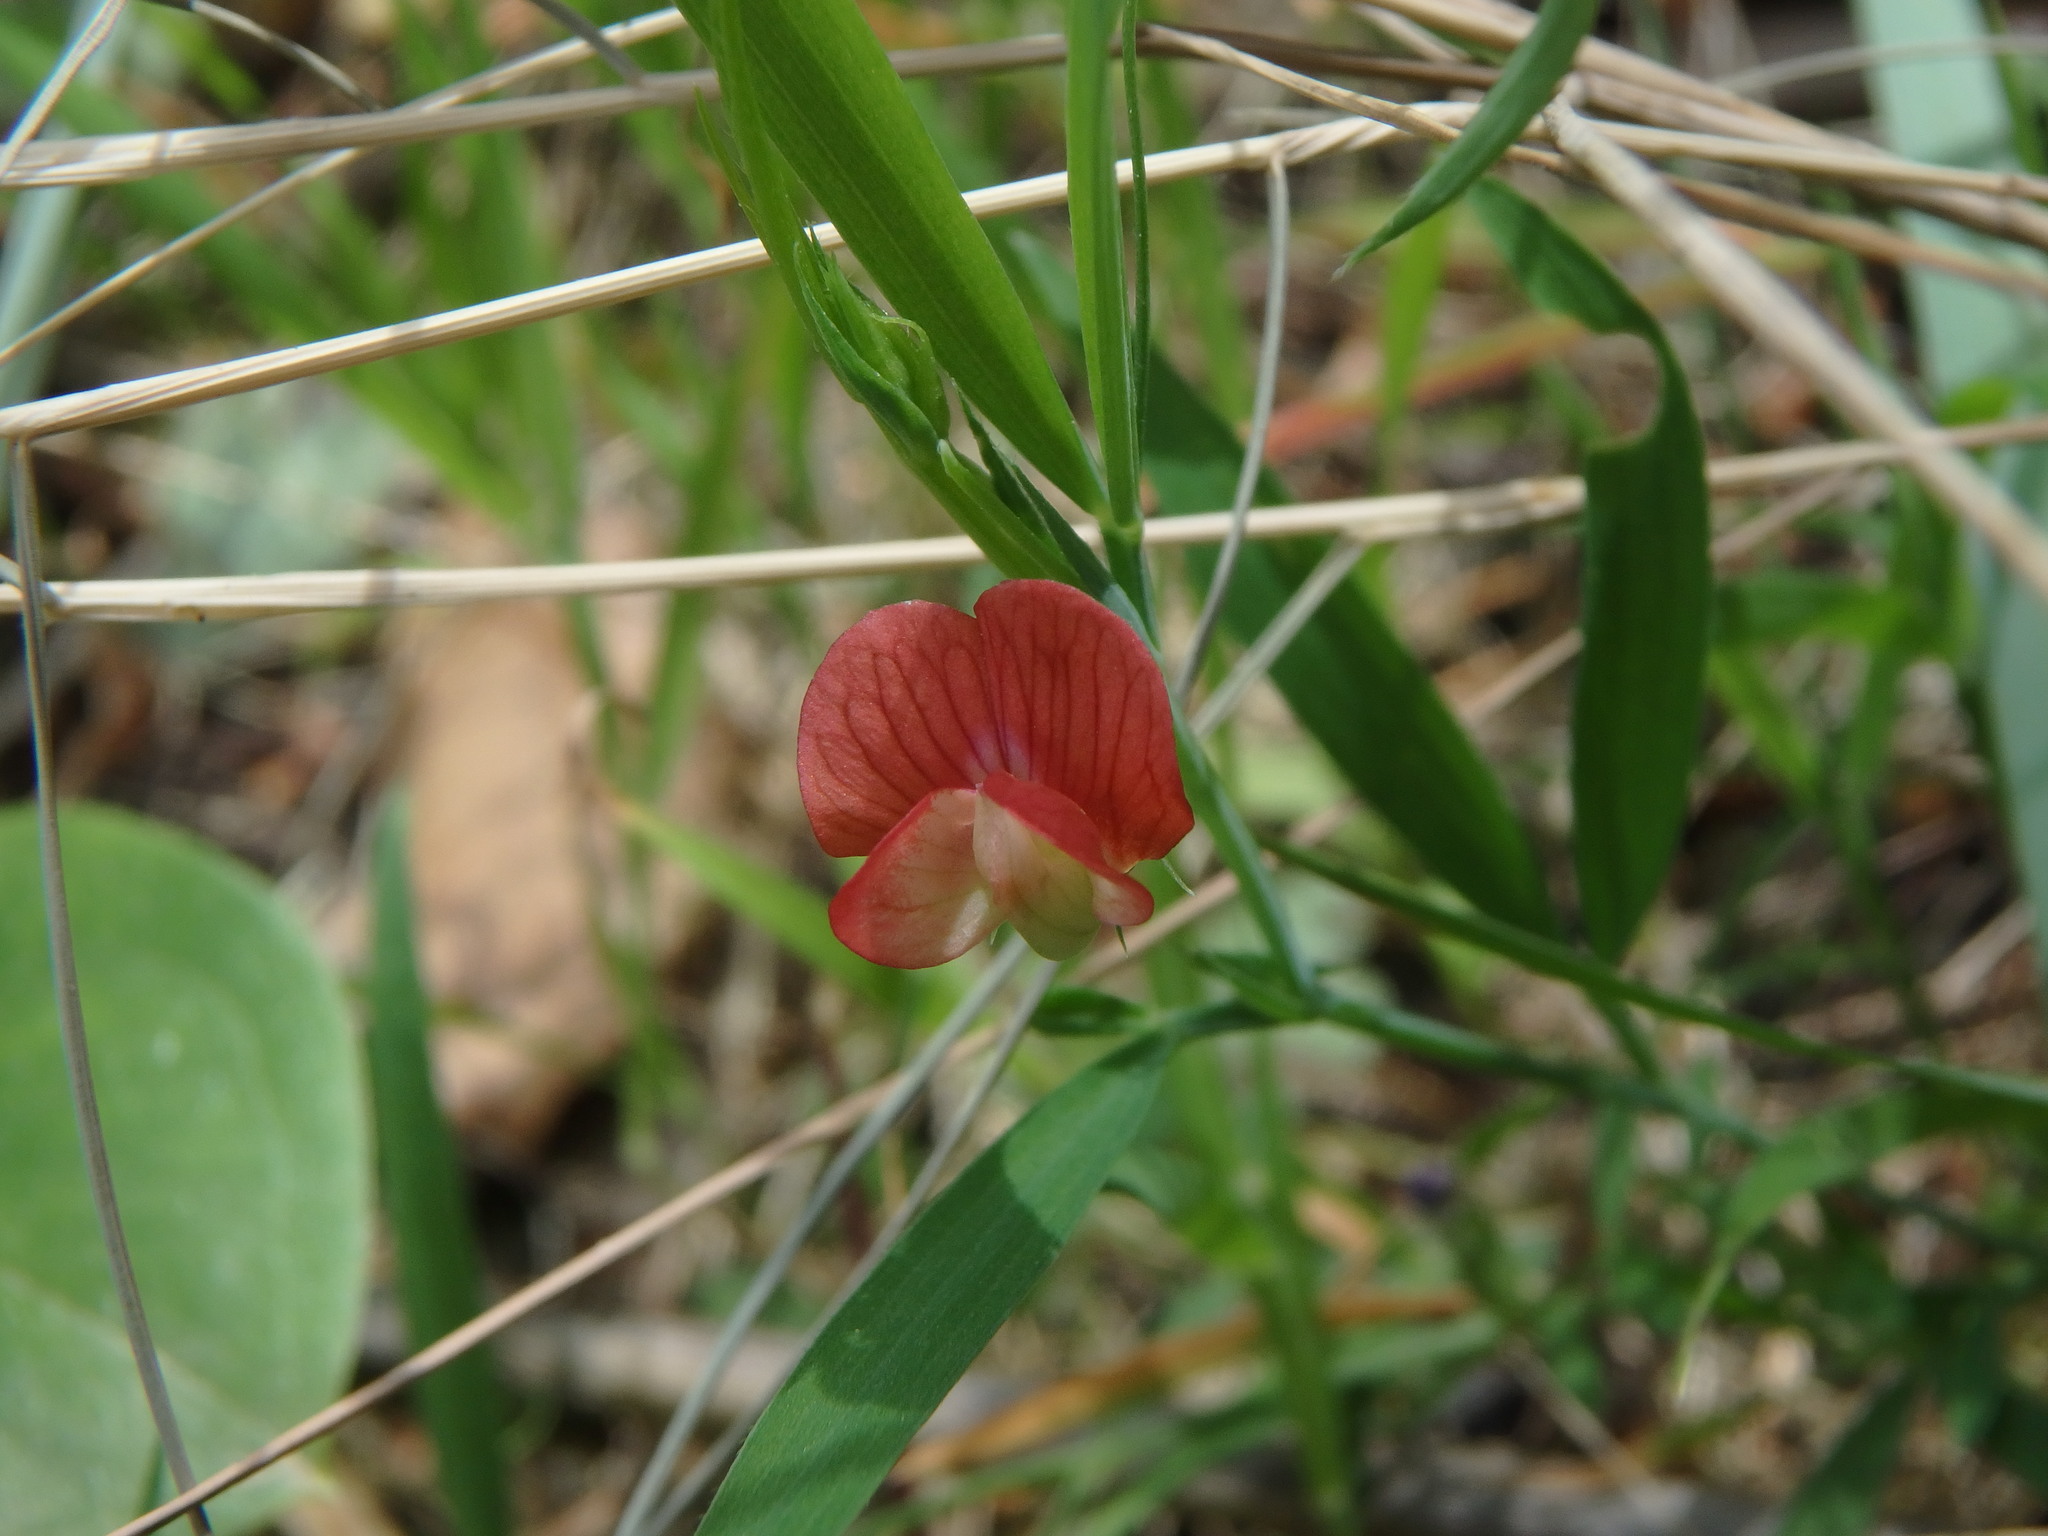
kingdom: Plantae
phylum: Tracheophyta
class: Magnoliopsida
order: Fabales
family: Fabaceae
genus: Lathyrus
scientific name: Lathyrus sphaericus
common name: Grass pea
